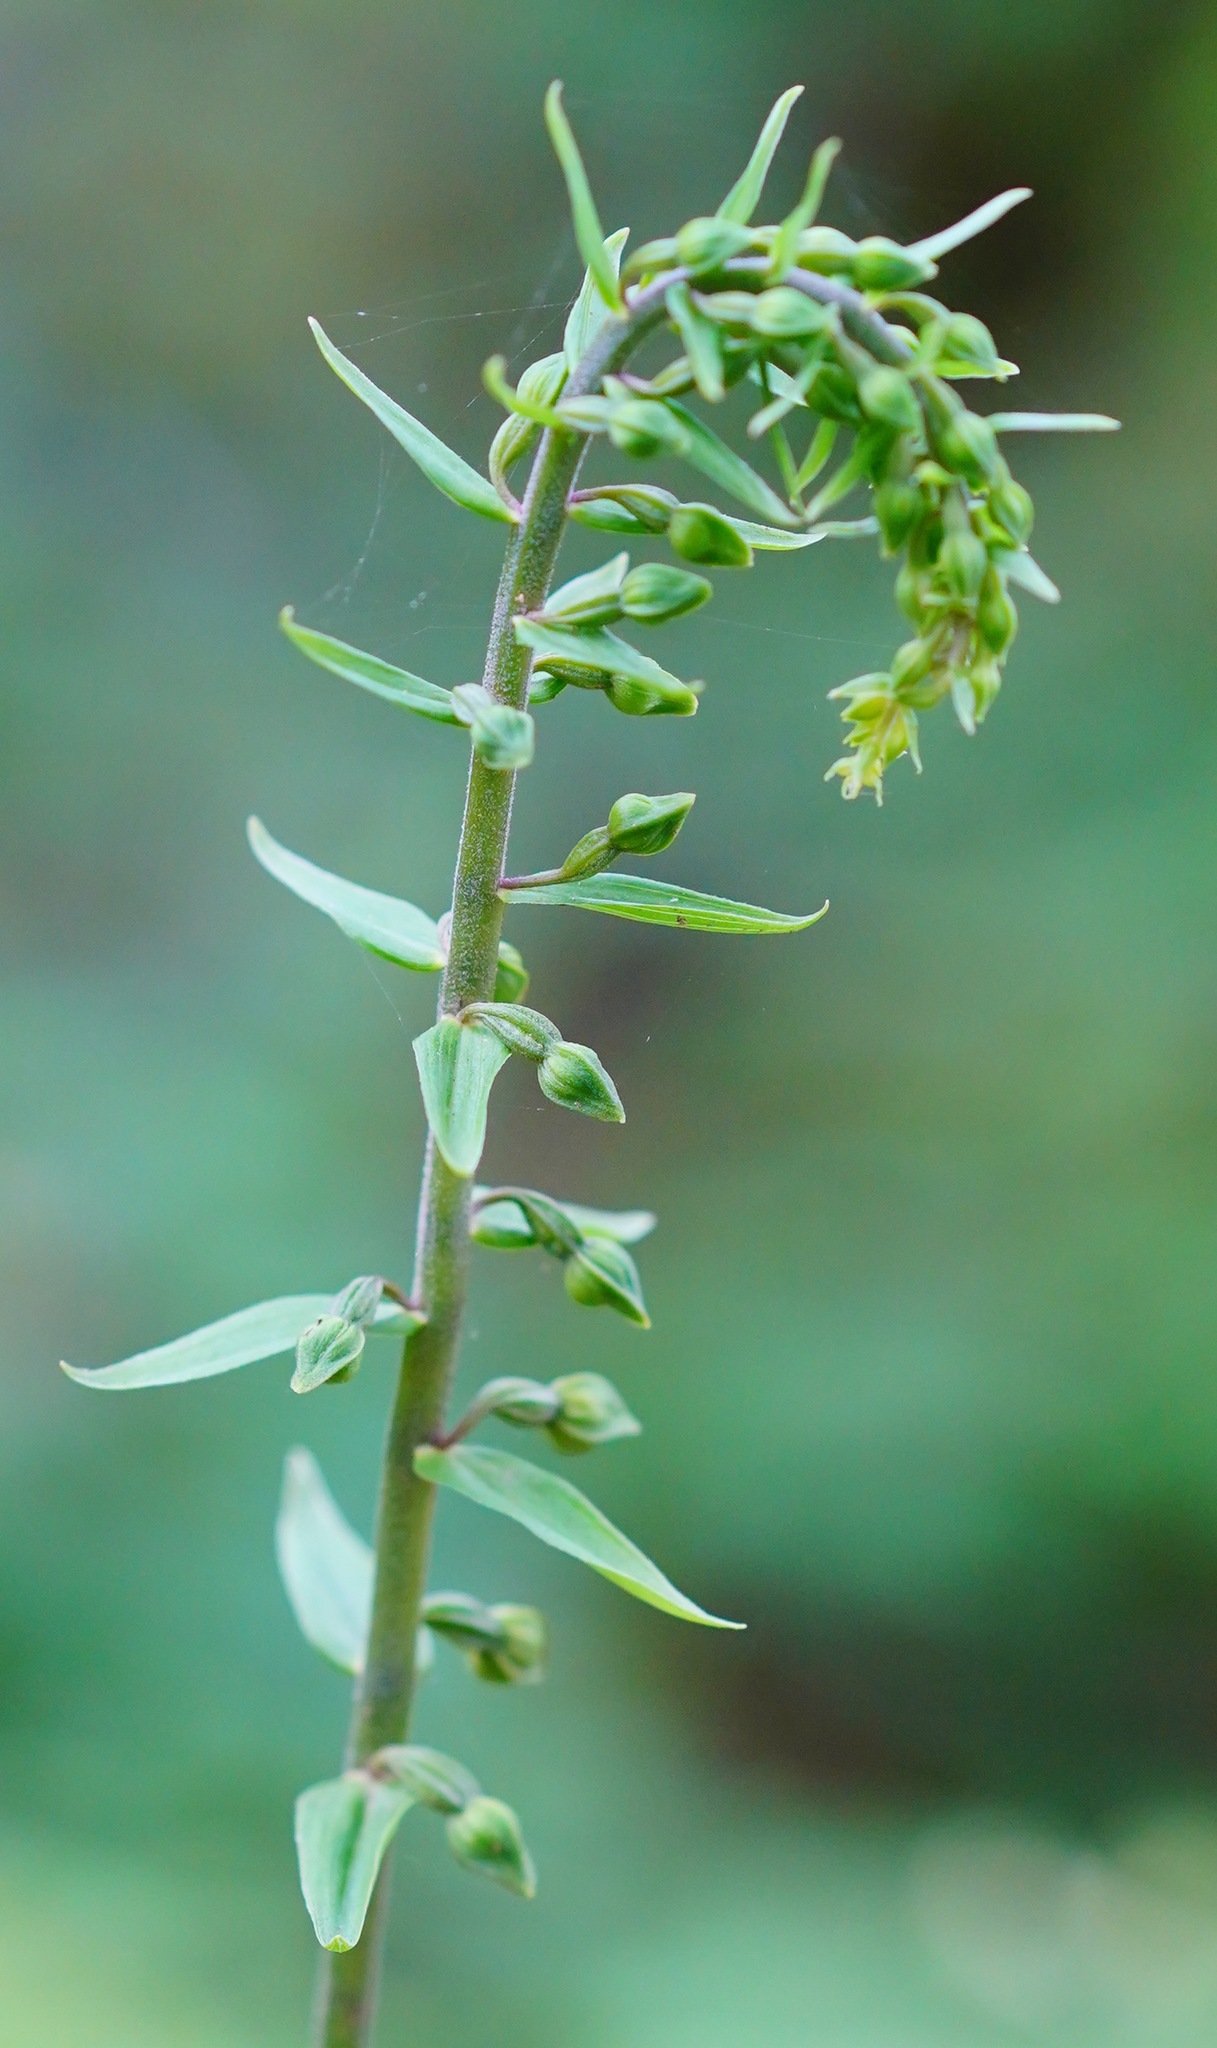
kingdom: Plantae
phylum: Tracheophyta
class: Liliopsida
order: Asparagales
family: Orchidaceae
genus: Epipactis
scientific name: Epipactis helleborine
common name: Broad-leaved helleborine
